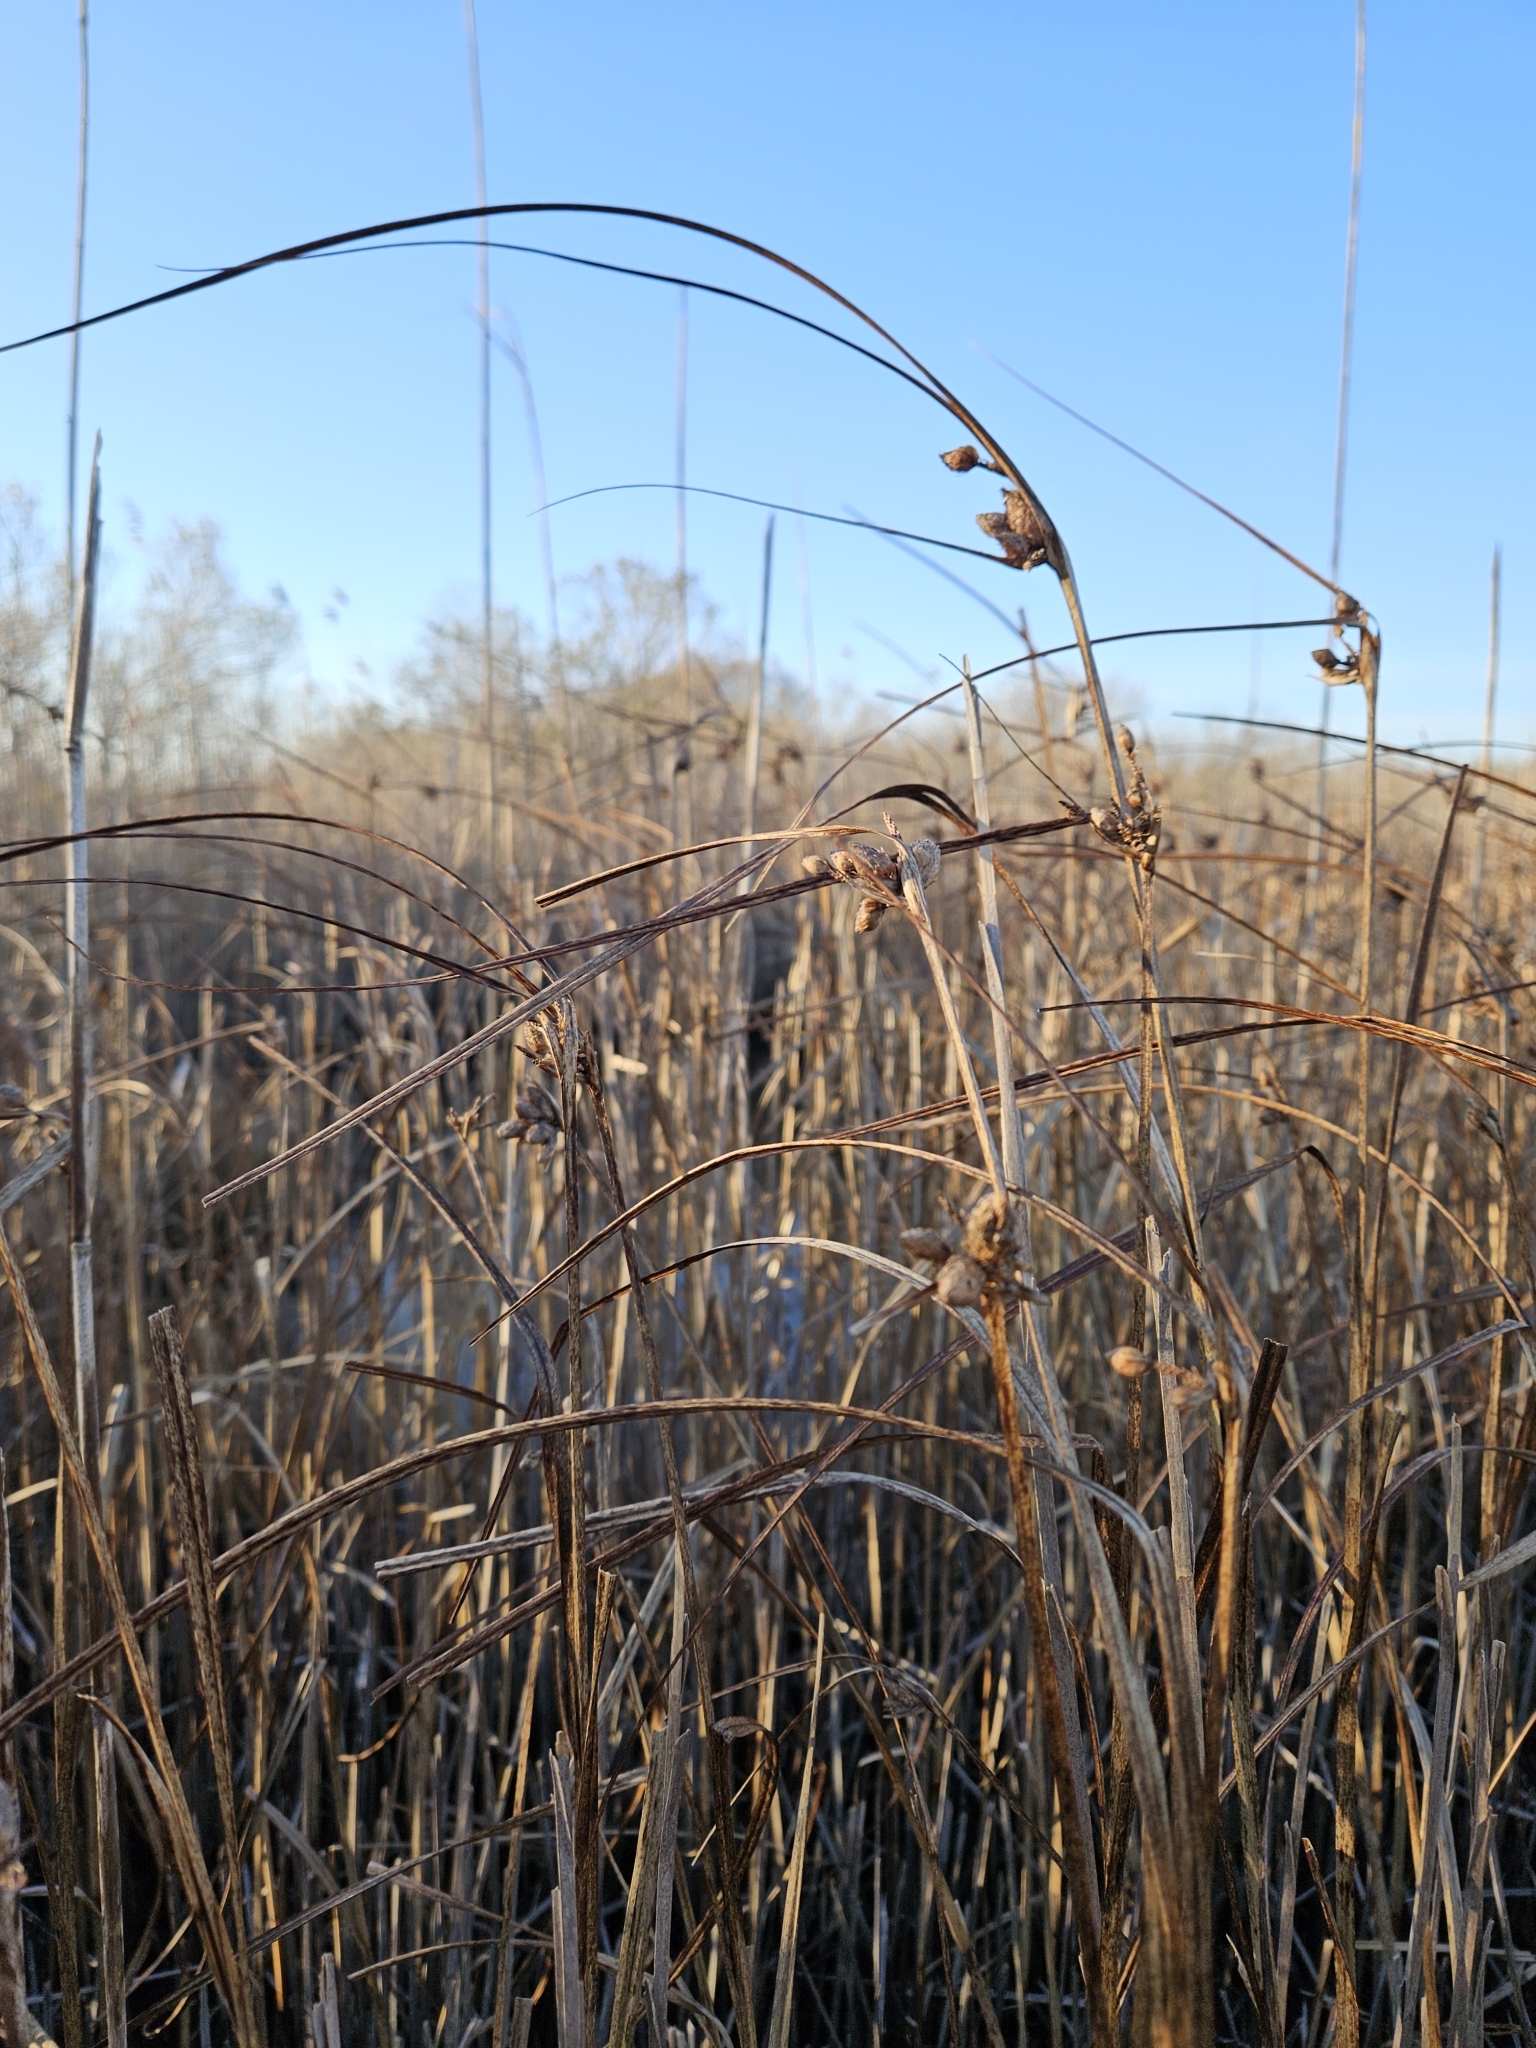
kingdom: Plantae
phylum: Tracheophyta
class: Liliopsida
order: Poales
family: Cyperaceae
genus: Bolboschoenus
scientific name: Bolboschoenus robustus
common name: Seacoast bulrush
